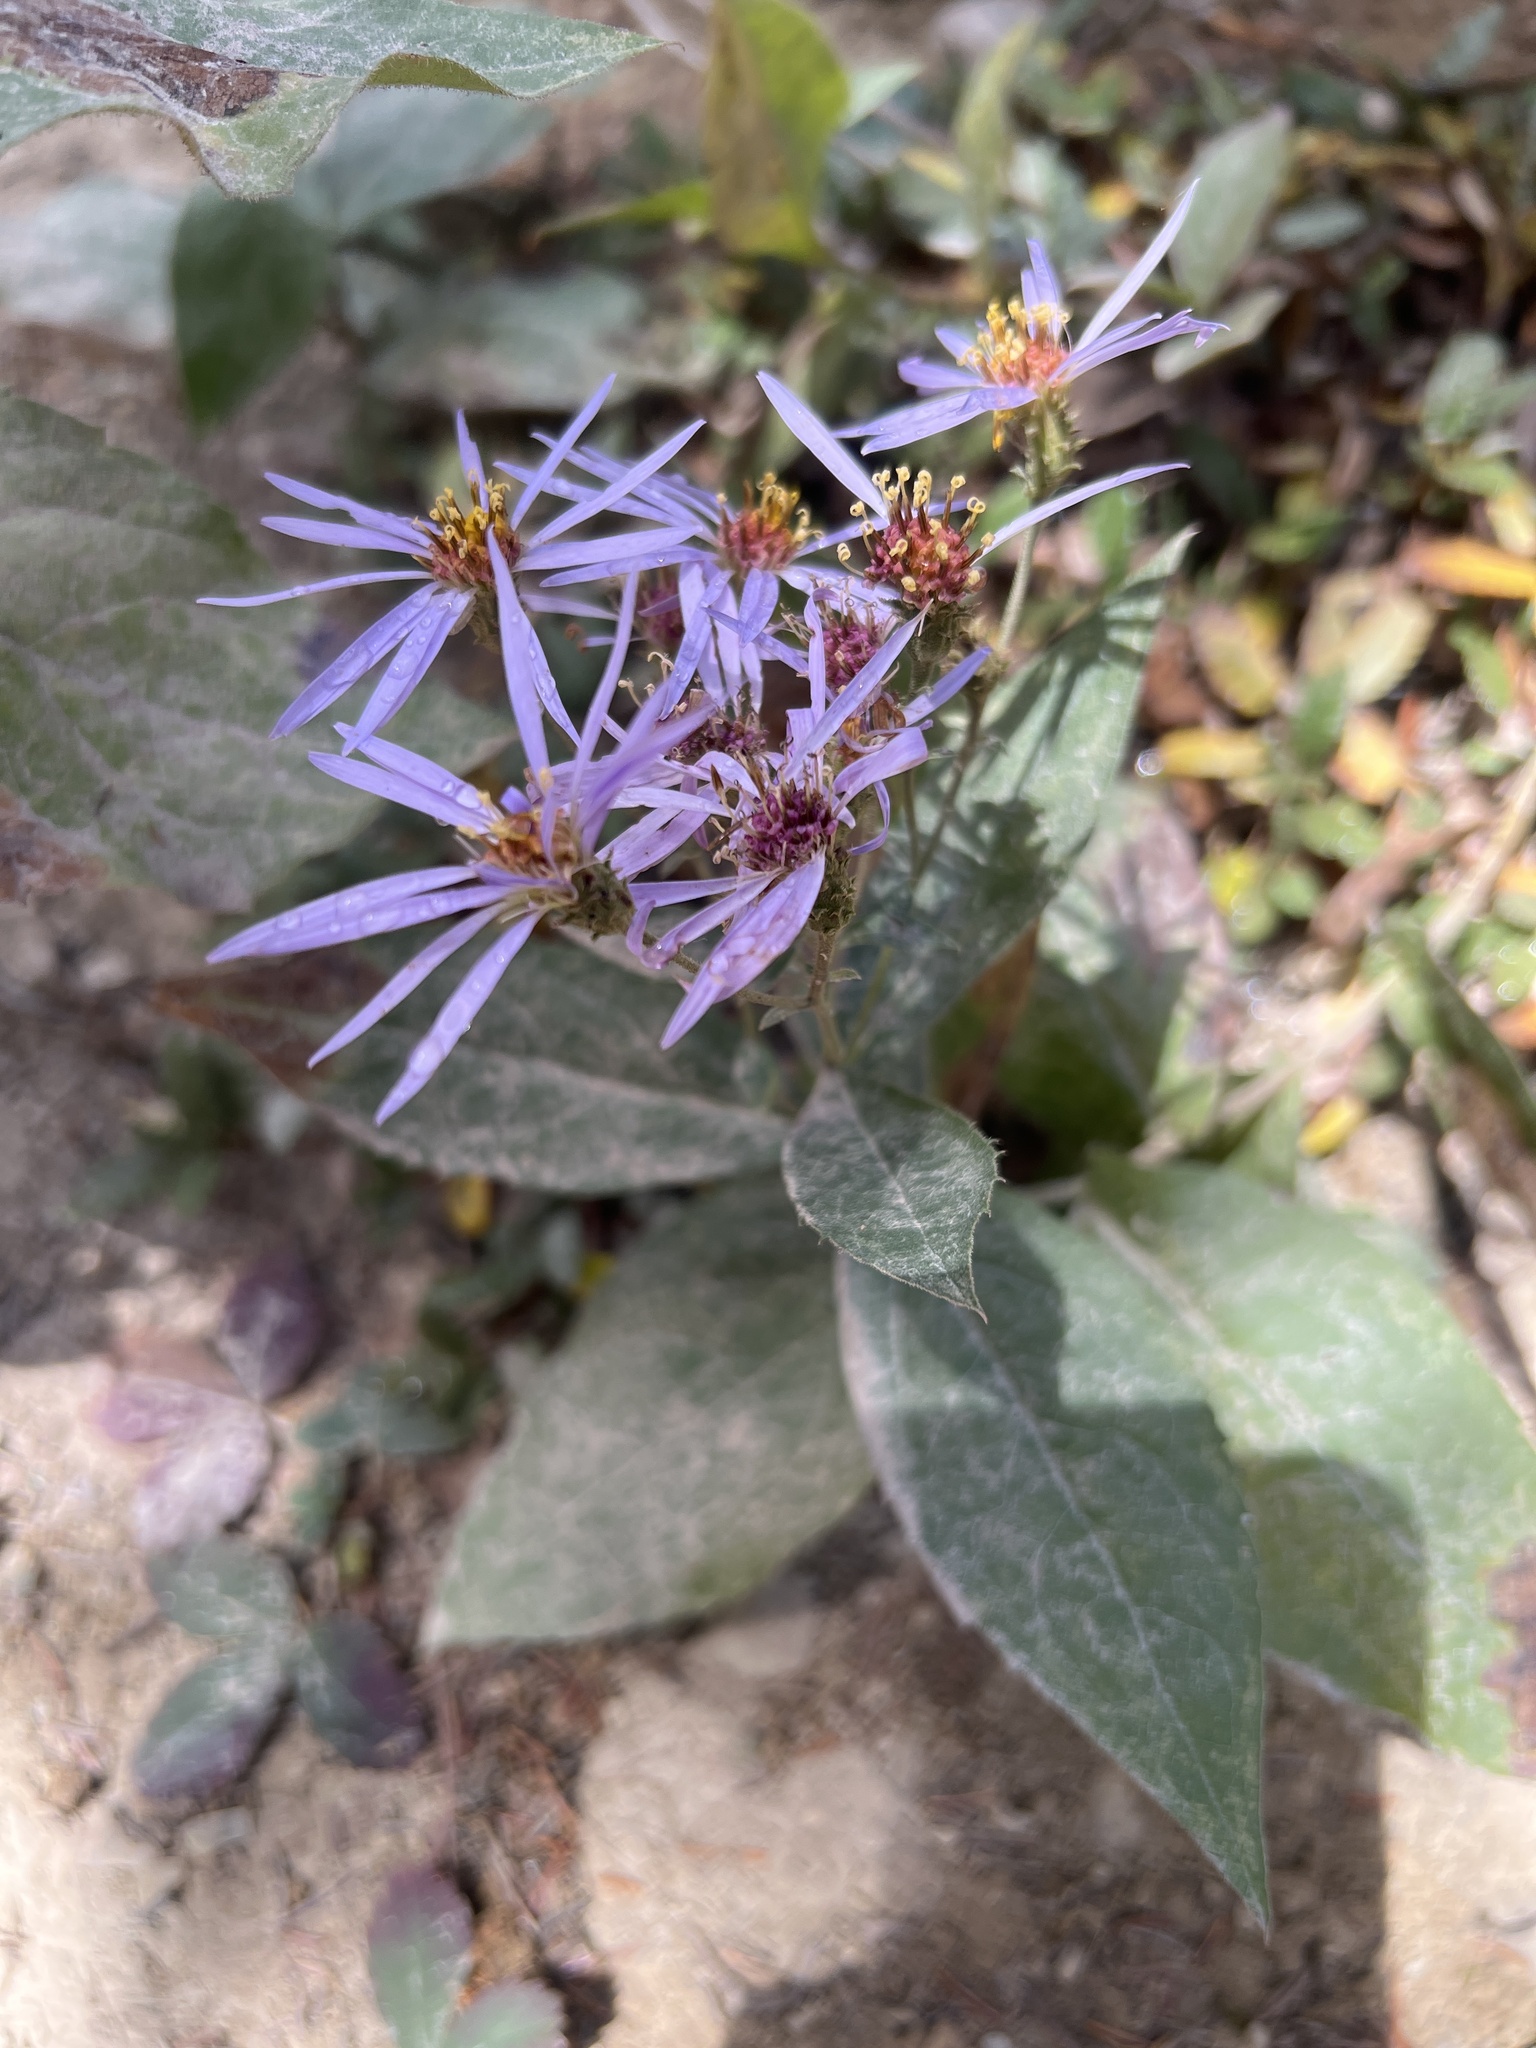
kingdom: Plantae
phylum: Tracheophyta
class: Magnoliopsida
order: Asterales
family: Asteraceae
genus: Eurybia
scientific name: Eurybia conspicua
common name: Showy aster
